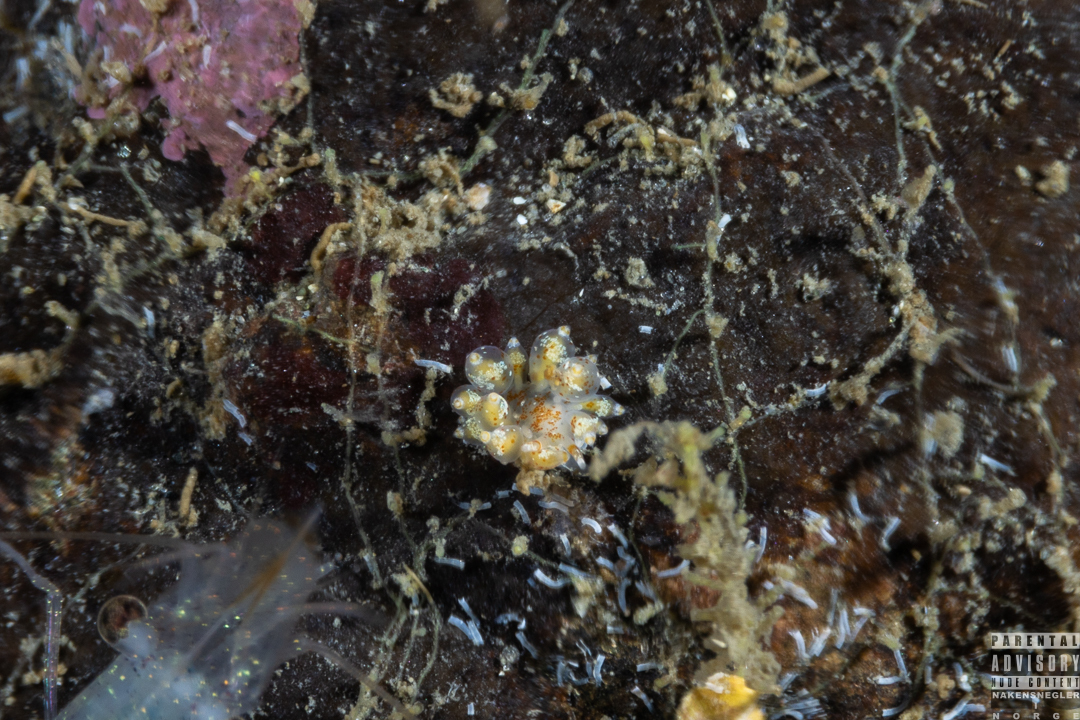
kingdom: Animalia
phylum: Mollusca
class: Gastropoda
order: Nudibranchia
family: Eubranchidae
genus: Amphorina
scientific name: Amphorina pallida
